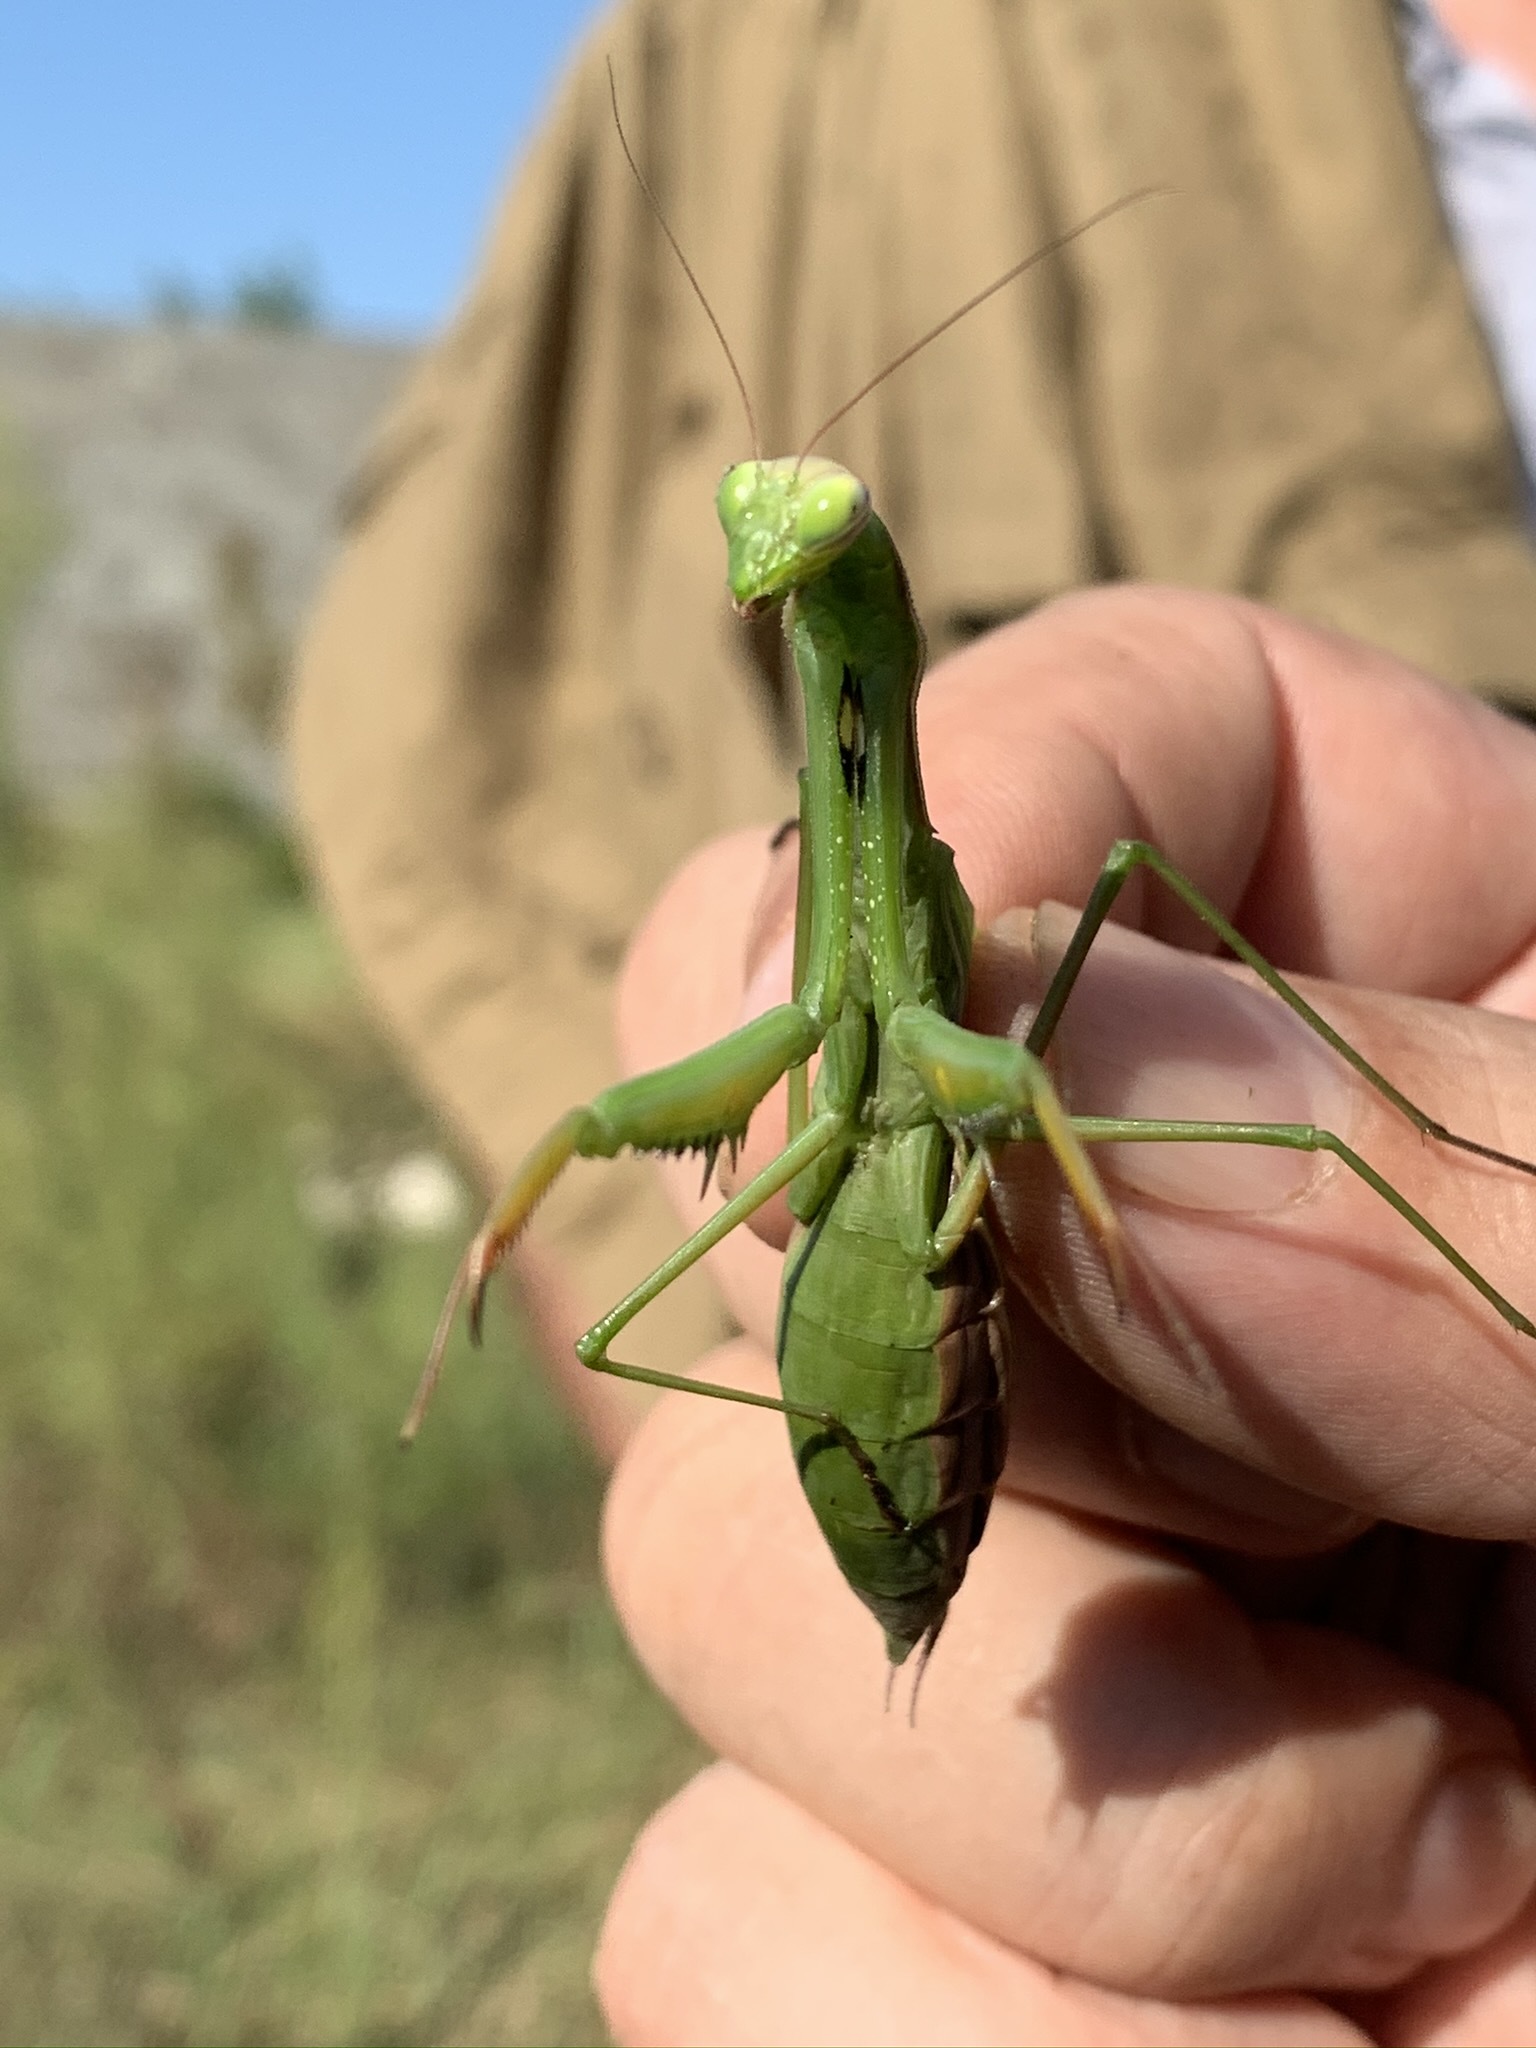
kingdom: Animalia
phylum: Arthropoda
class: Insecta
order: Mantodea
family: Mantidae
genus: Mantis
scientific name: Mantis religiosa
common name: Praying mantis
